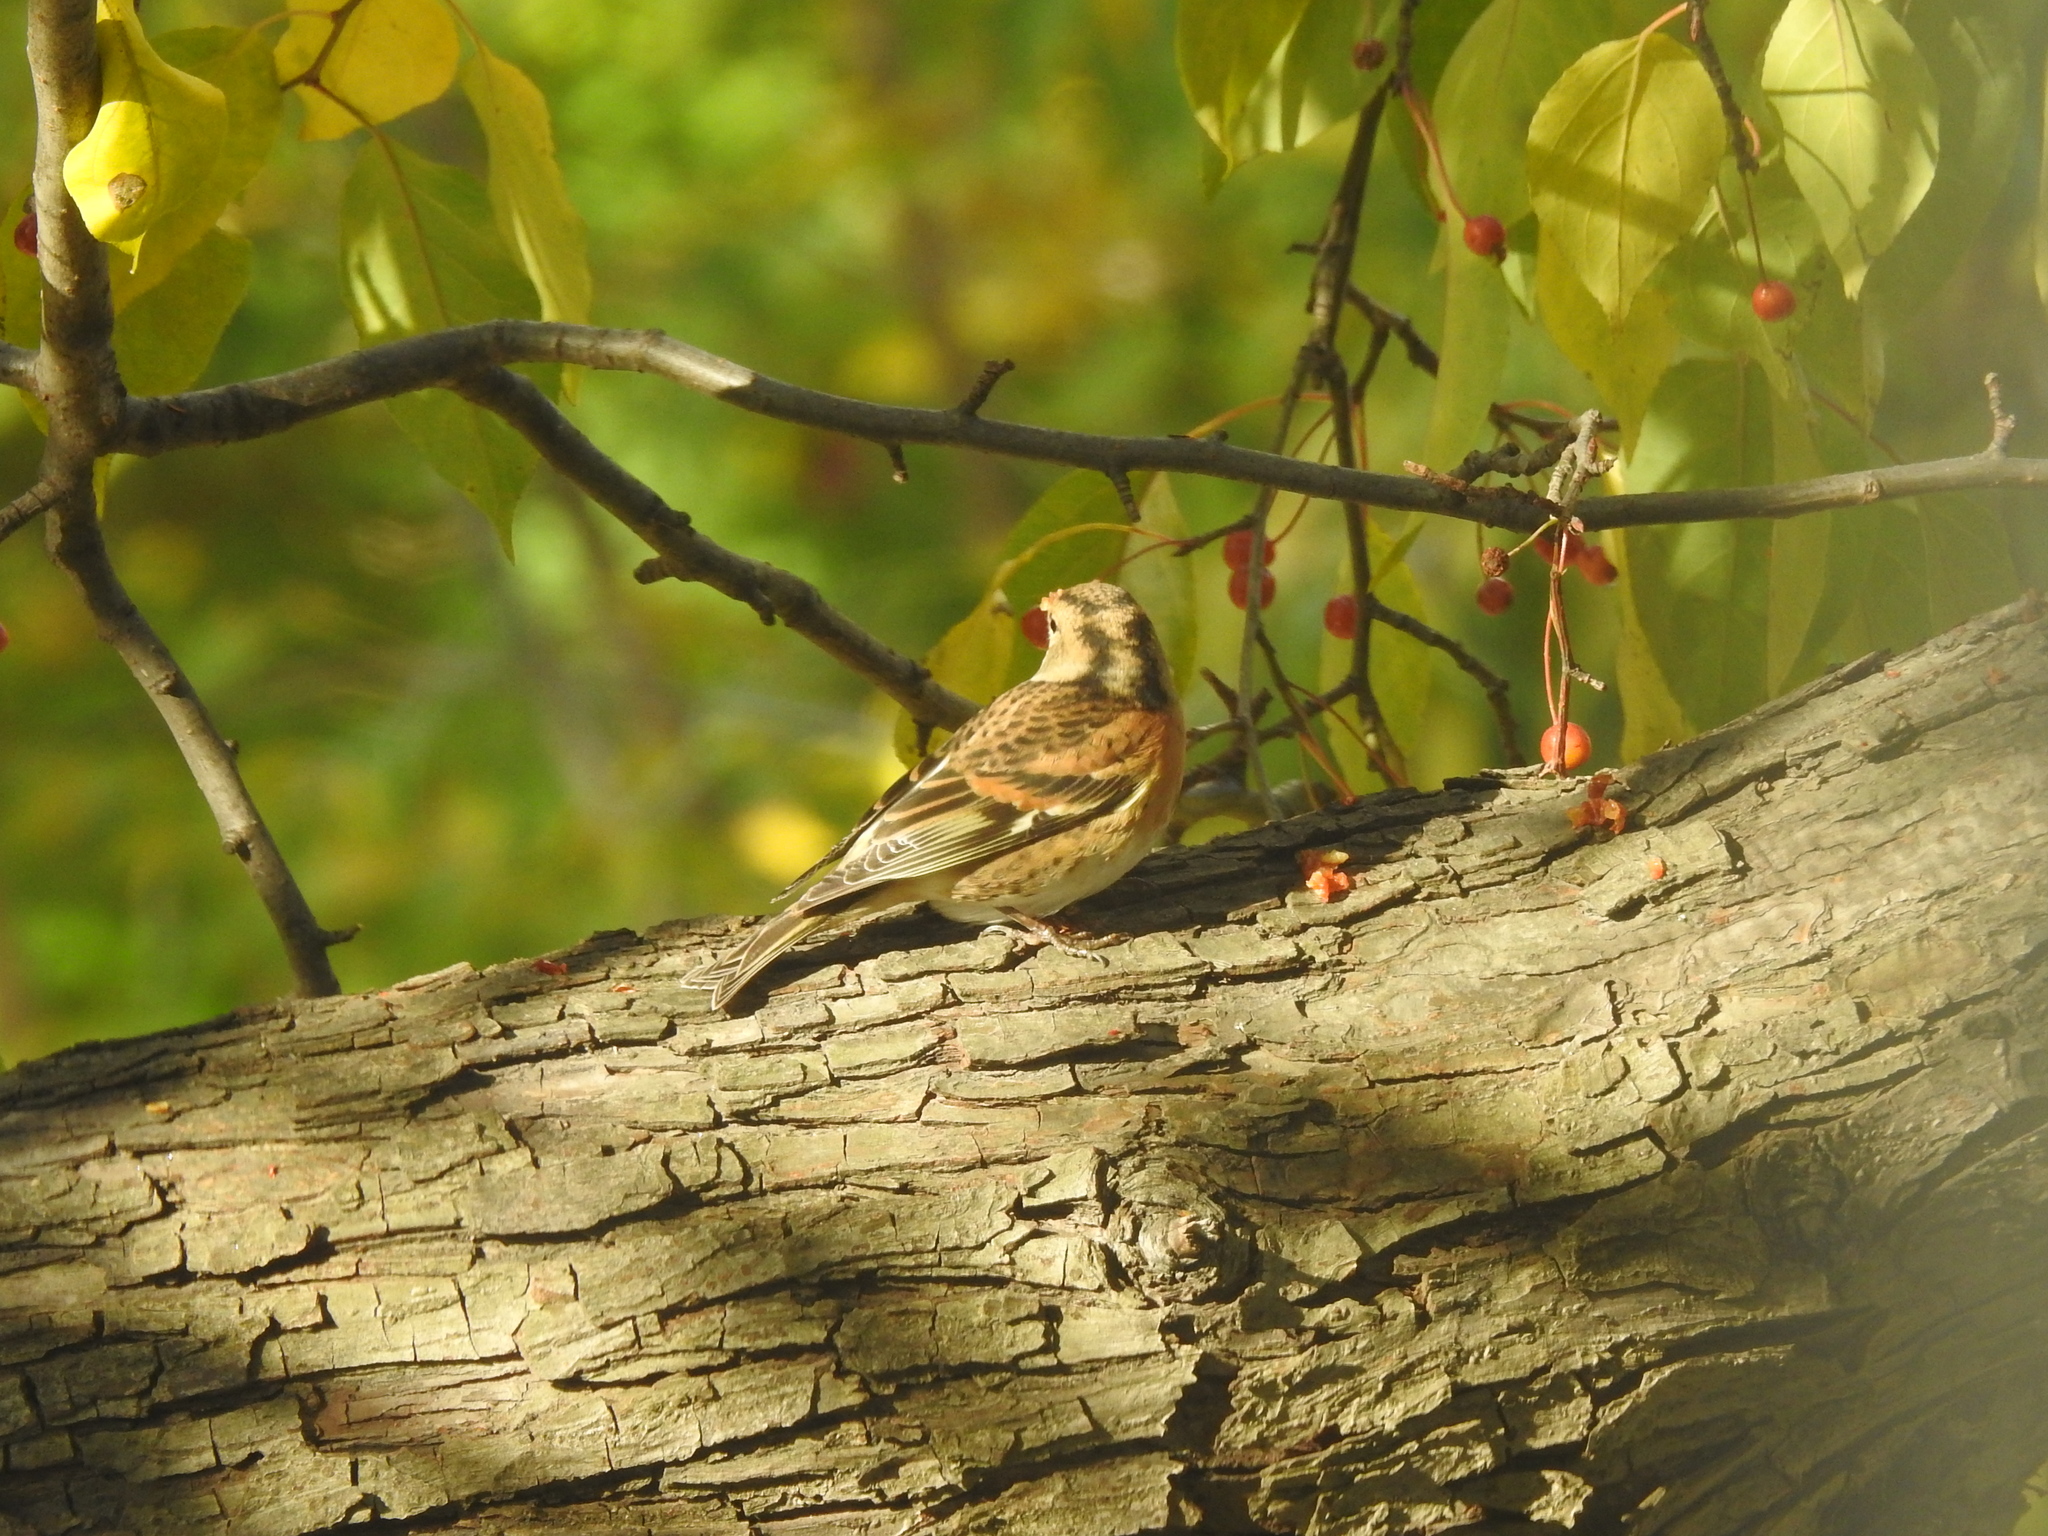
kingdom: Animalia
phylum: Chordata
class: Aves
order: Passeriformes
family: Fringillidae
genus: Fringilla
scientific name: Fringilla montifringilla
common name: Brambling
